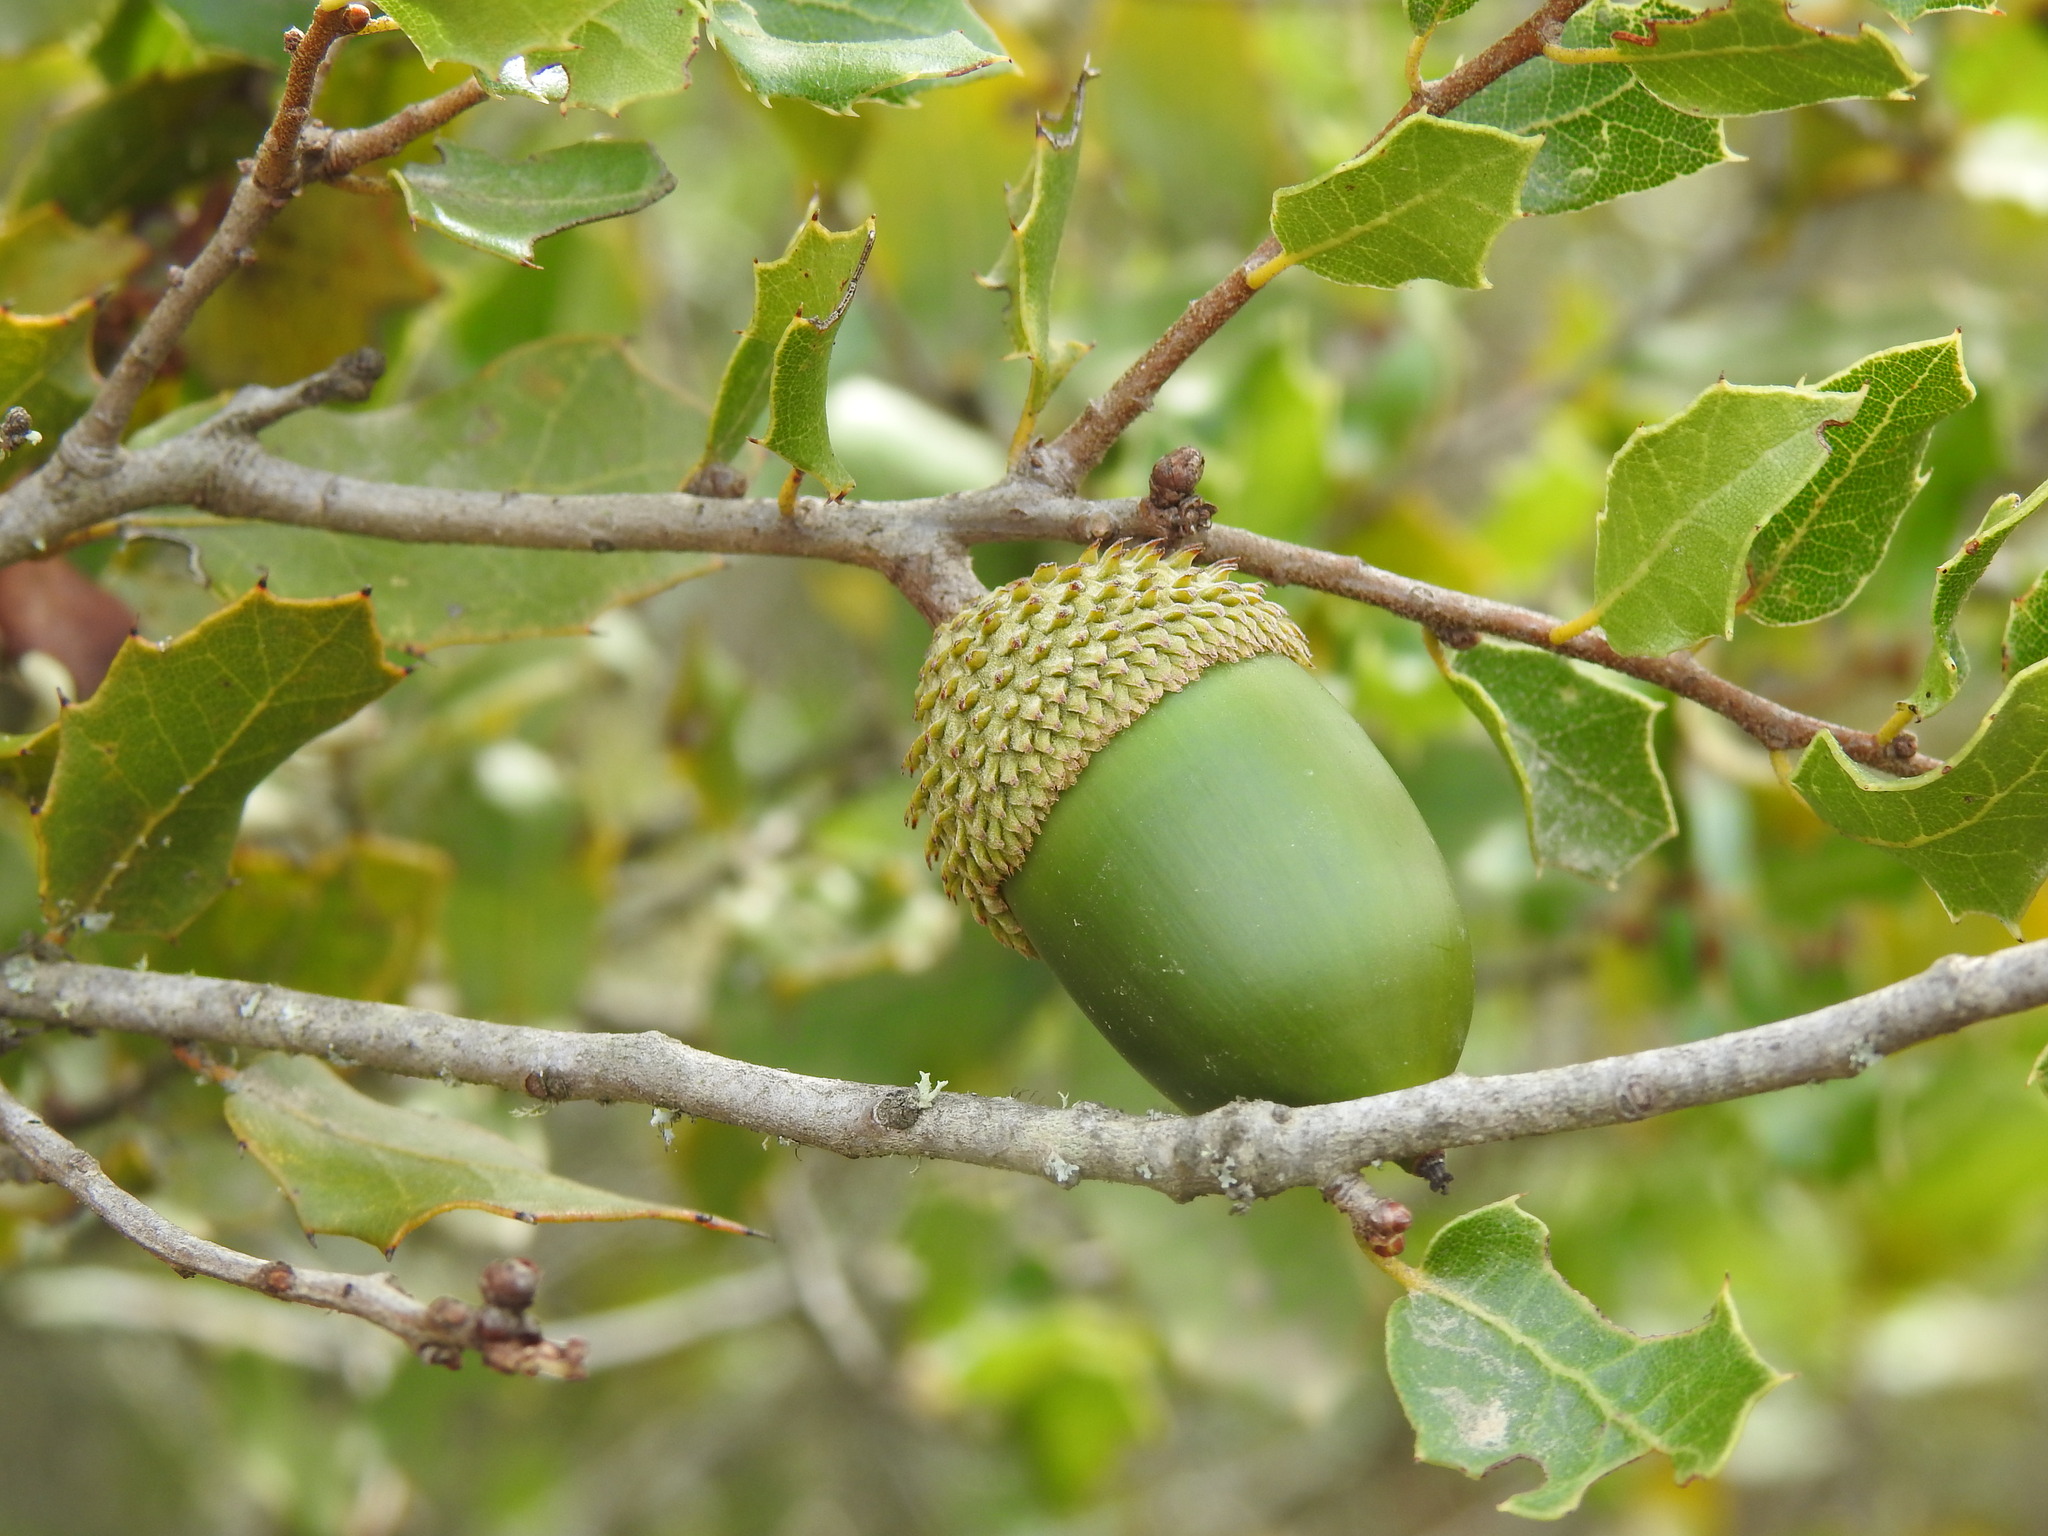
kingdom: Plantae
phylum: Tracheophyta
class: Magnoliopsida
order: Fagales
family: Fagaceae
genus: Quercus
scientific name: Quercus coccifera
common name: Kermes oak
